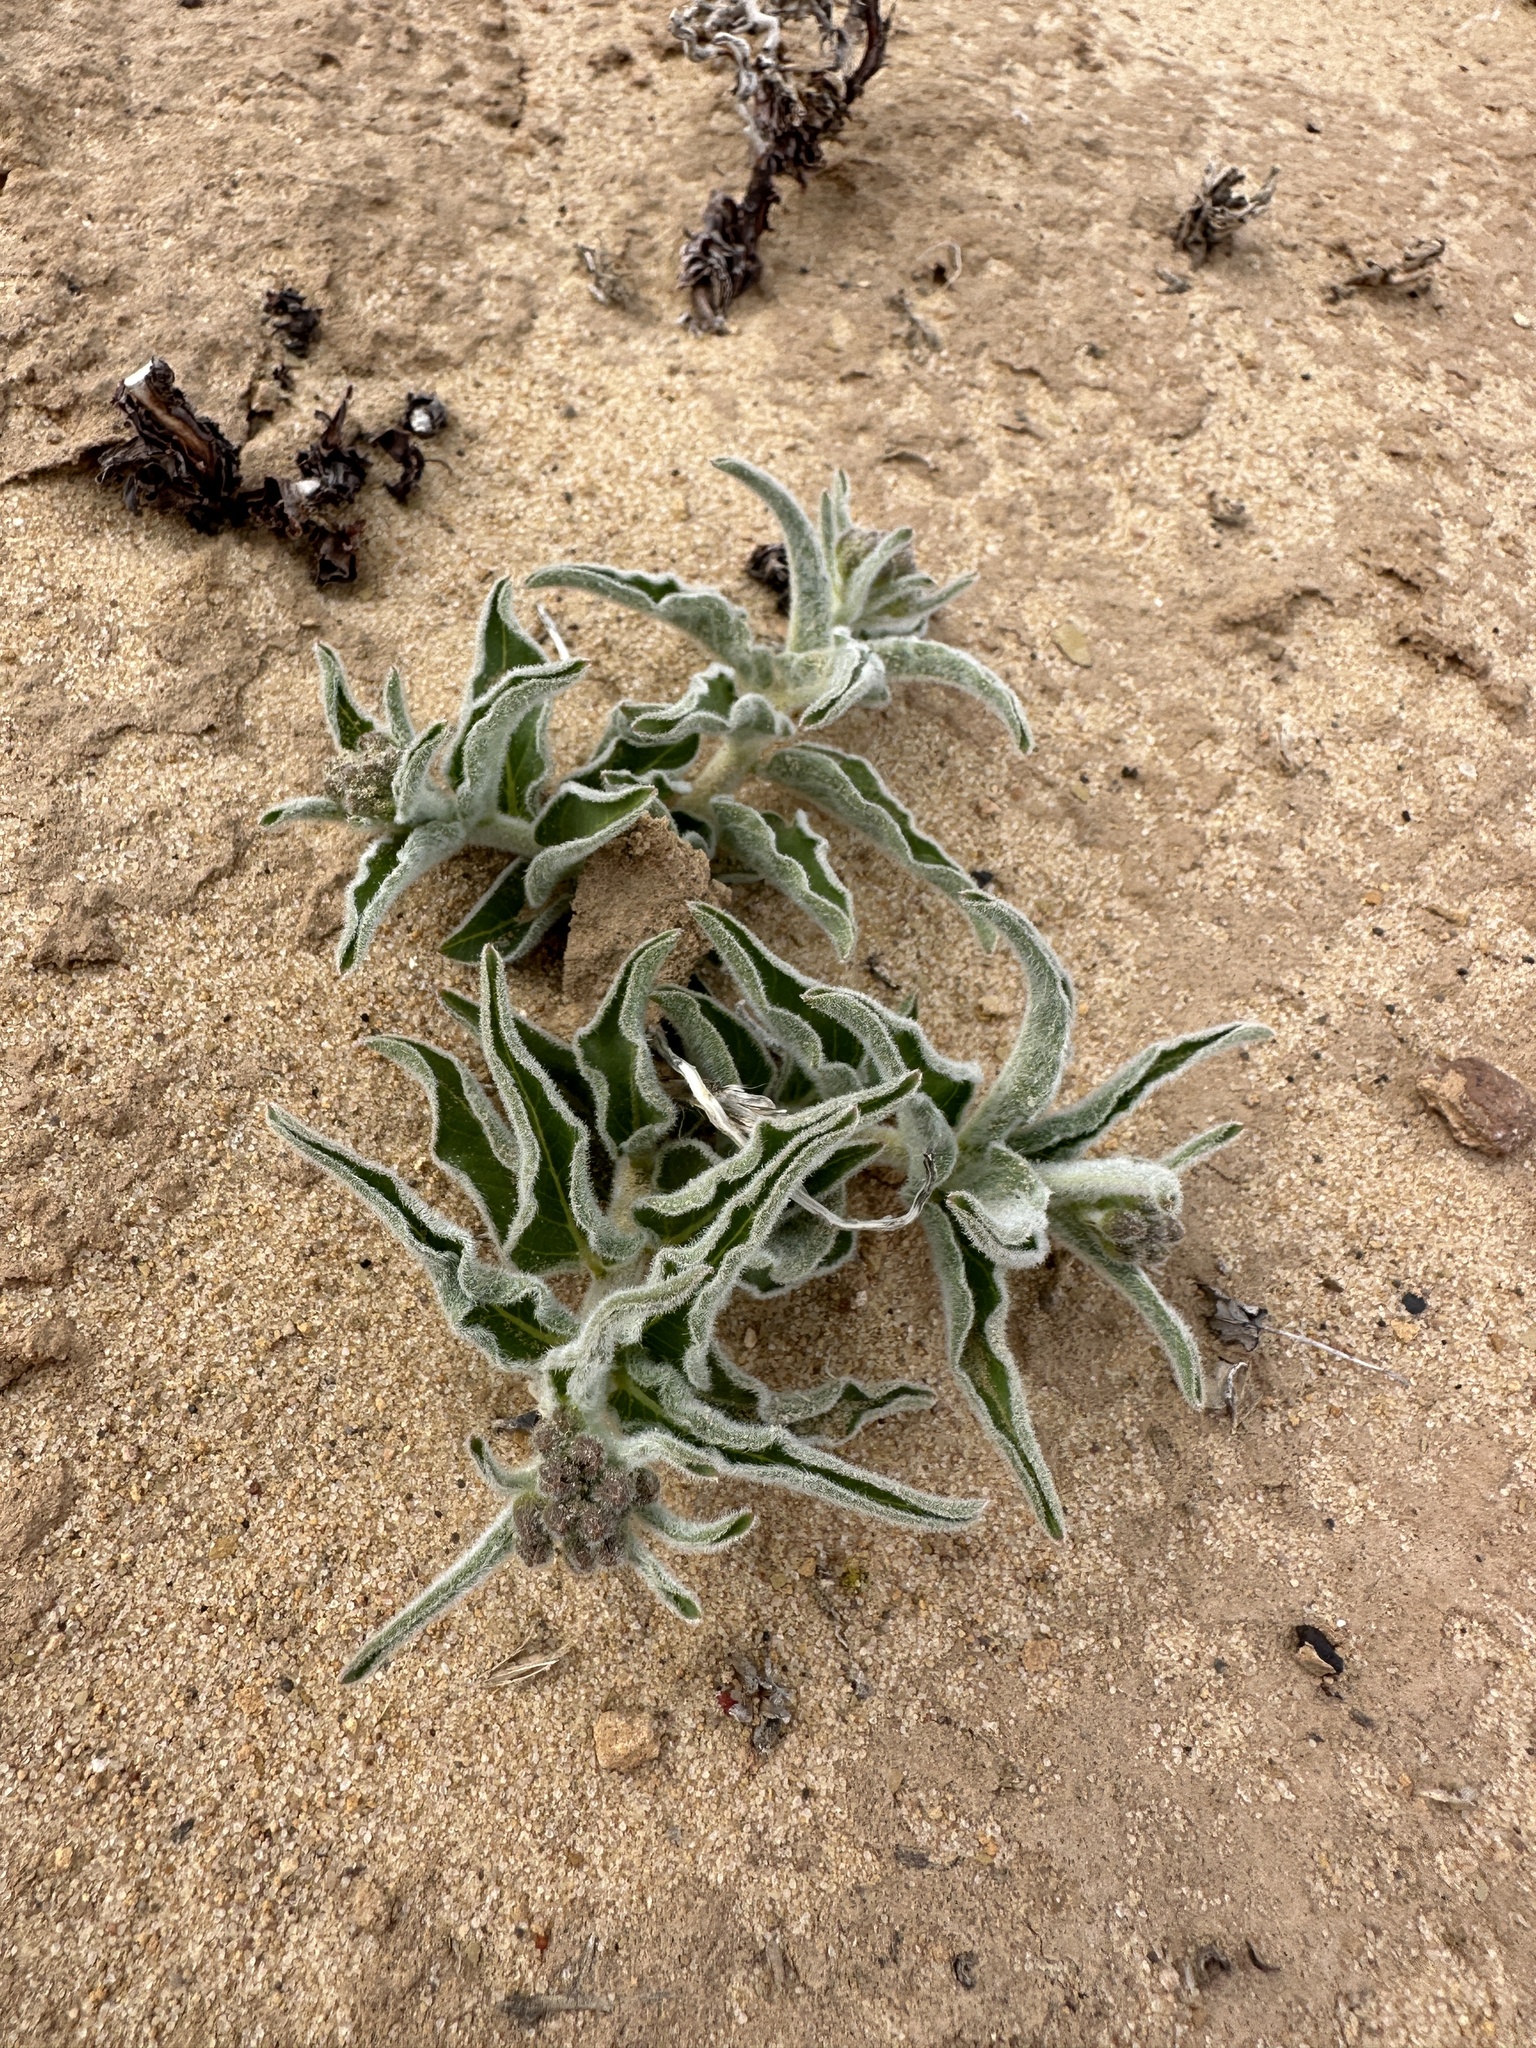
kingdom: Plantae
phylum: Tracheophyta
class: Magnoliopsida
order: Gentianales
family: Apocynaceae
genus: Asclepias
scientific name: Asclepias involucrata
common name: Dwarf milkweed
